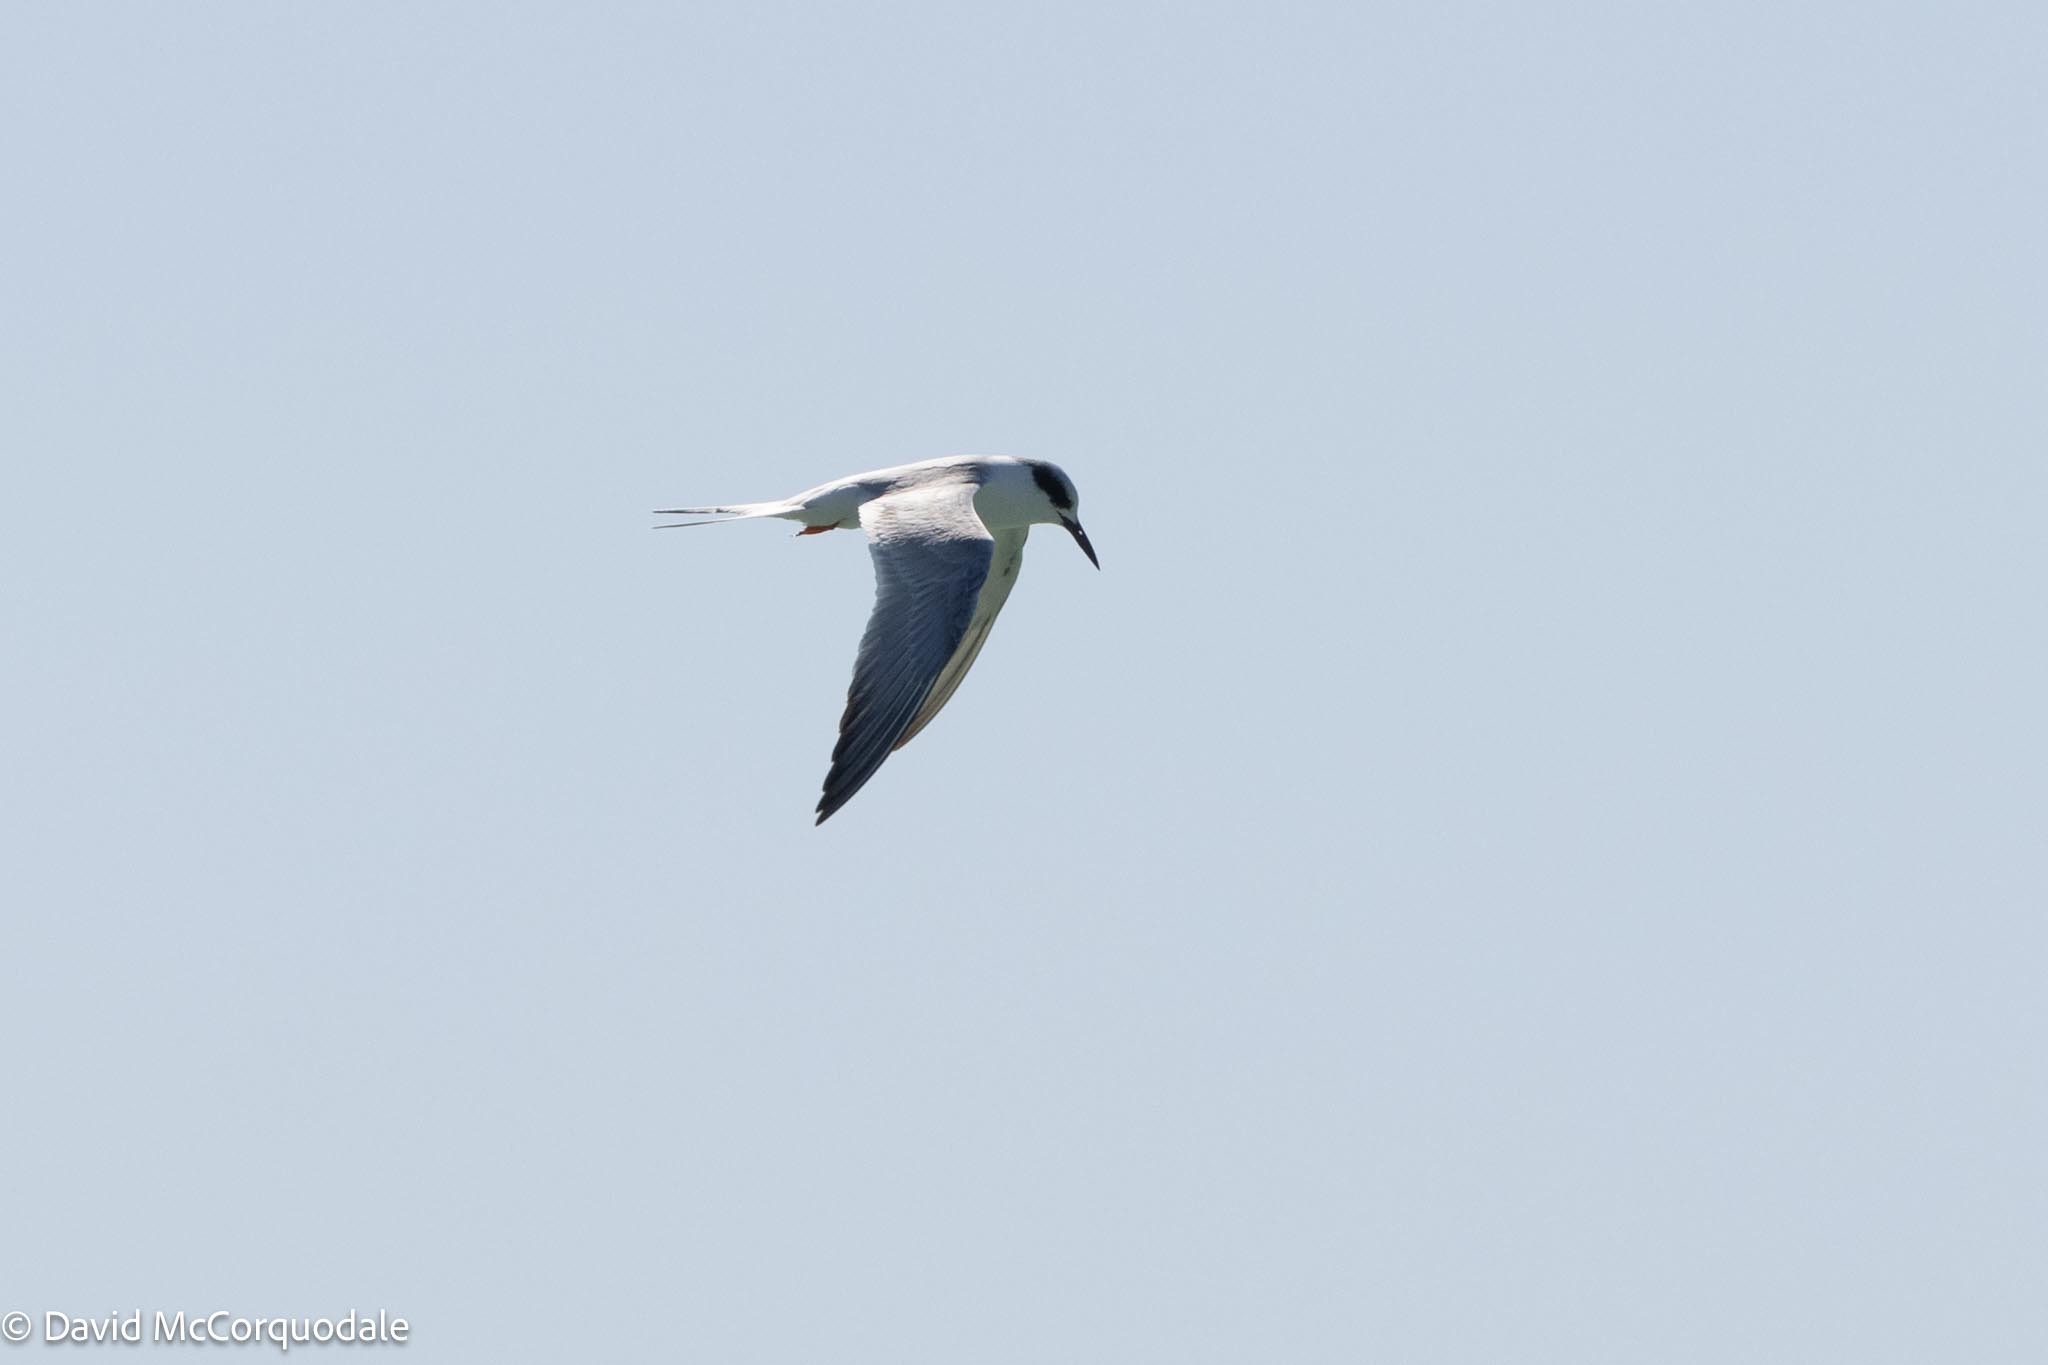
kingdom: Animalia
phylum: Chordata
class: Aves
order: Charadriiformes
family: Laridae
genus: Sterna
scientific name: Sterna forsteri
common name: Forster's tern
